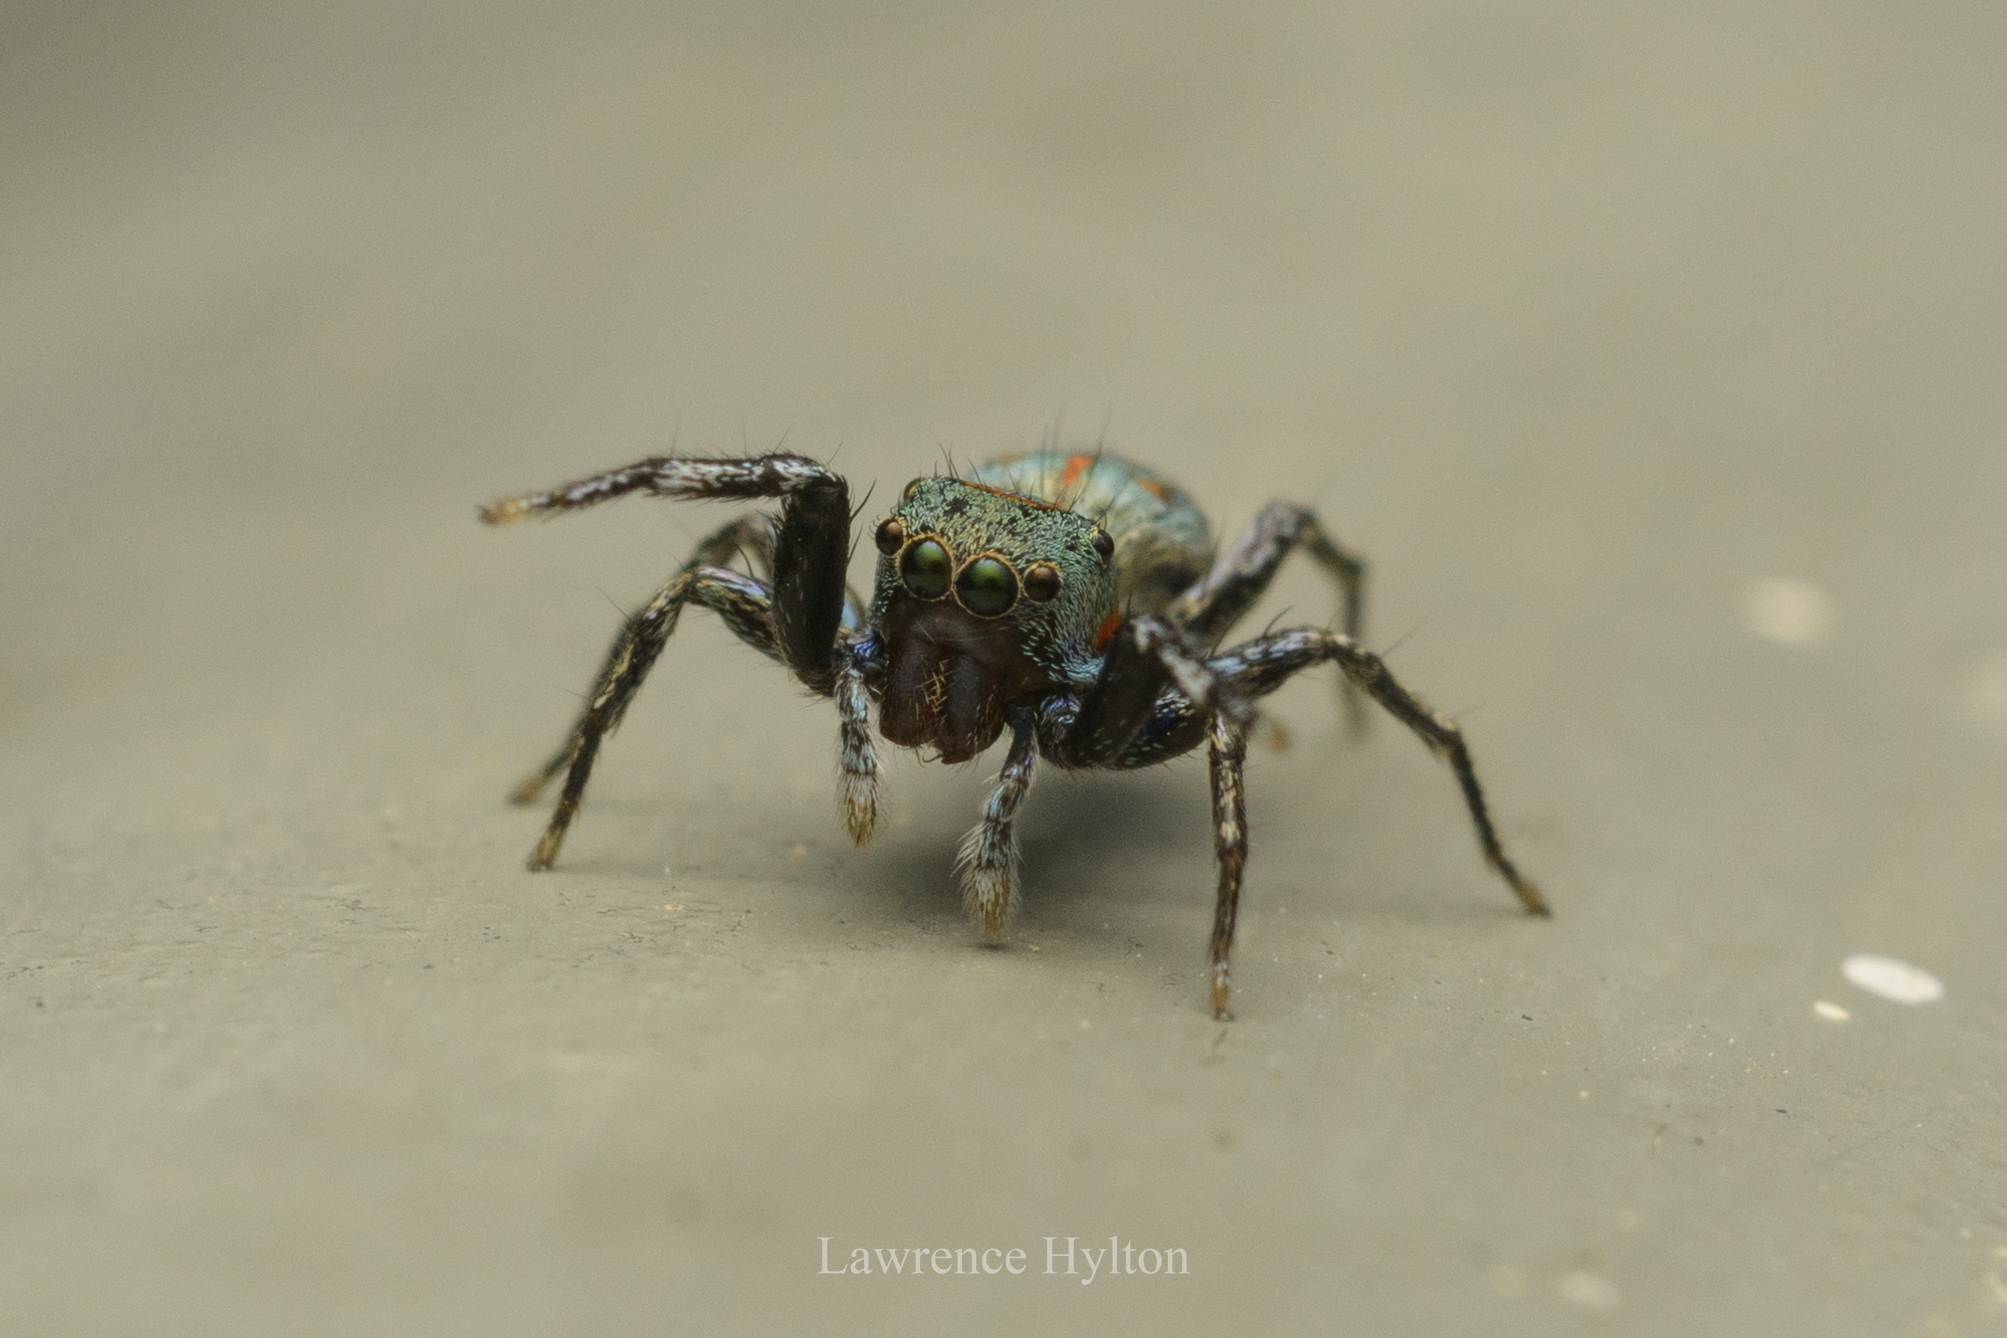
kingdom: Animalia
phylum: Arthropoda
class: Arachnida
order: Araneae
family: Salticidae
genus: Siler
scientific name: Siler collingwoodi
